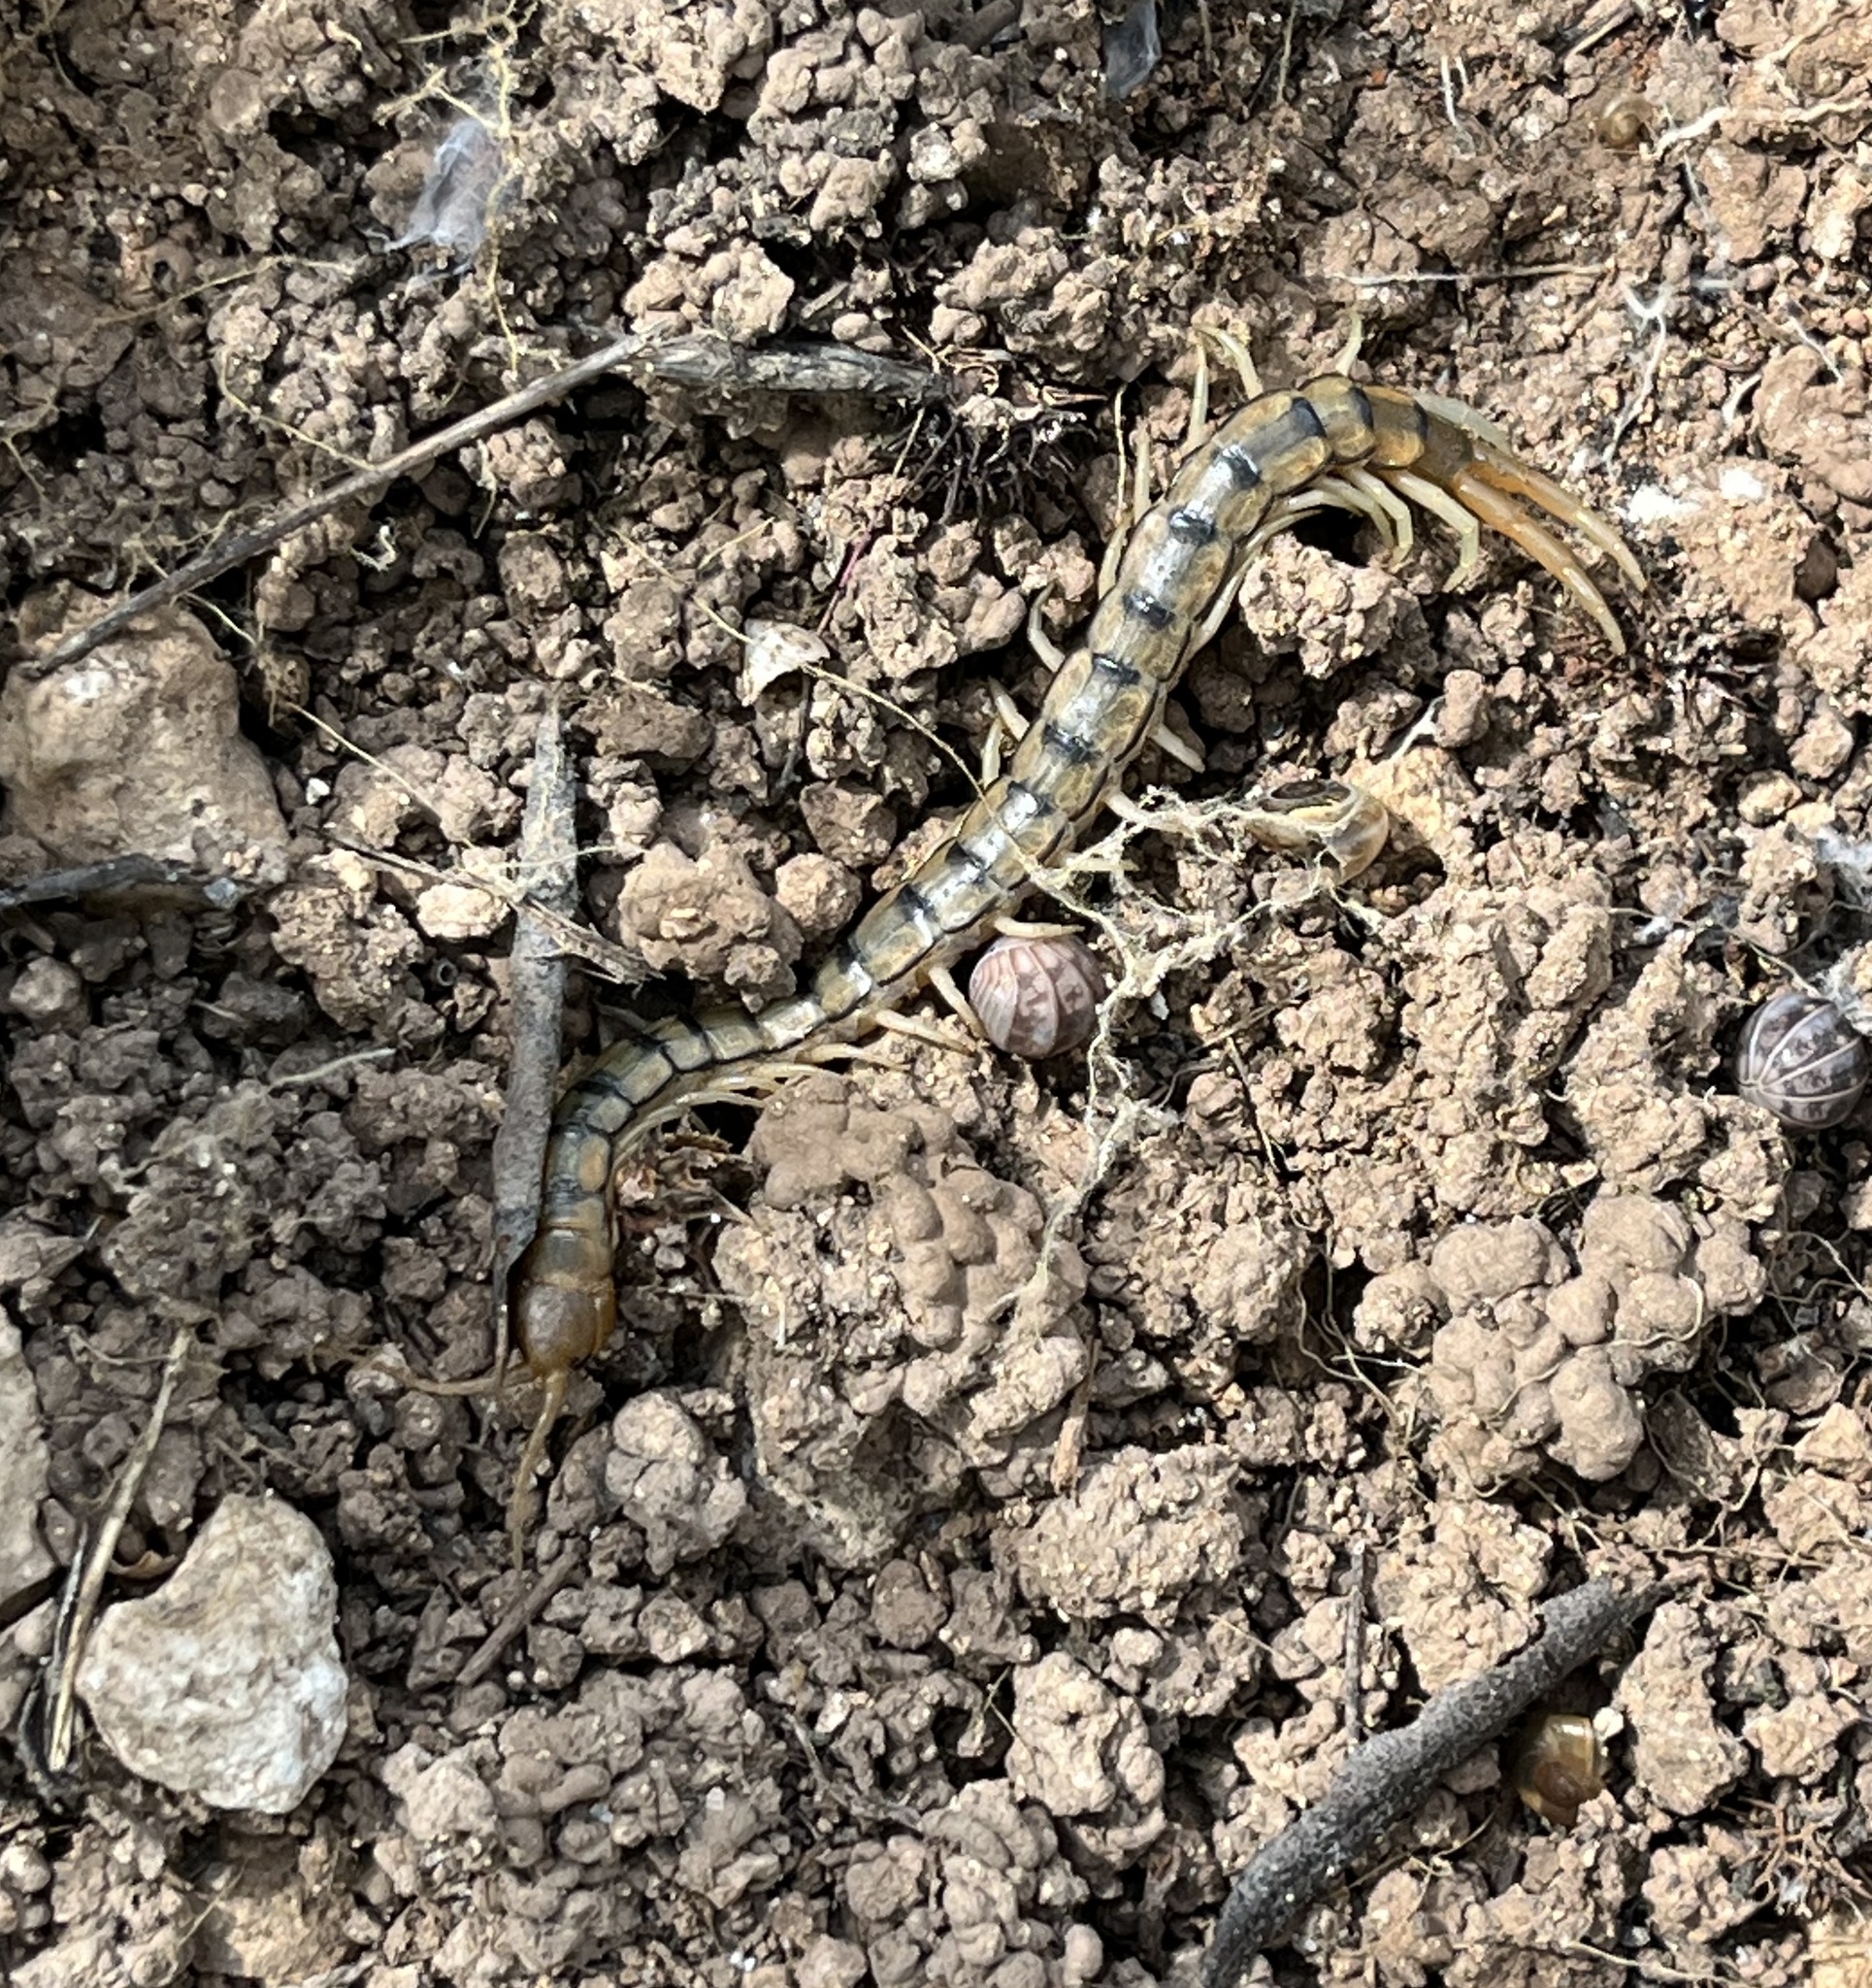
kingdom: Animalia
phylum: Arthropoda
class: Chilopoda
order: Scolopendromorpha
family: Scolopendridae
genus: Scolopendra
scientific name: Scolopendra cingulata
